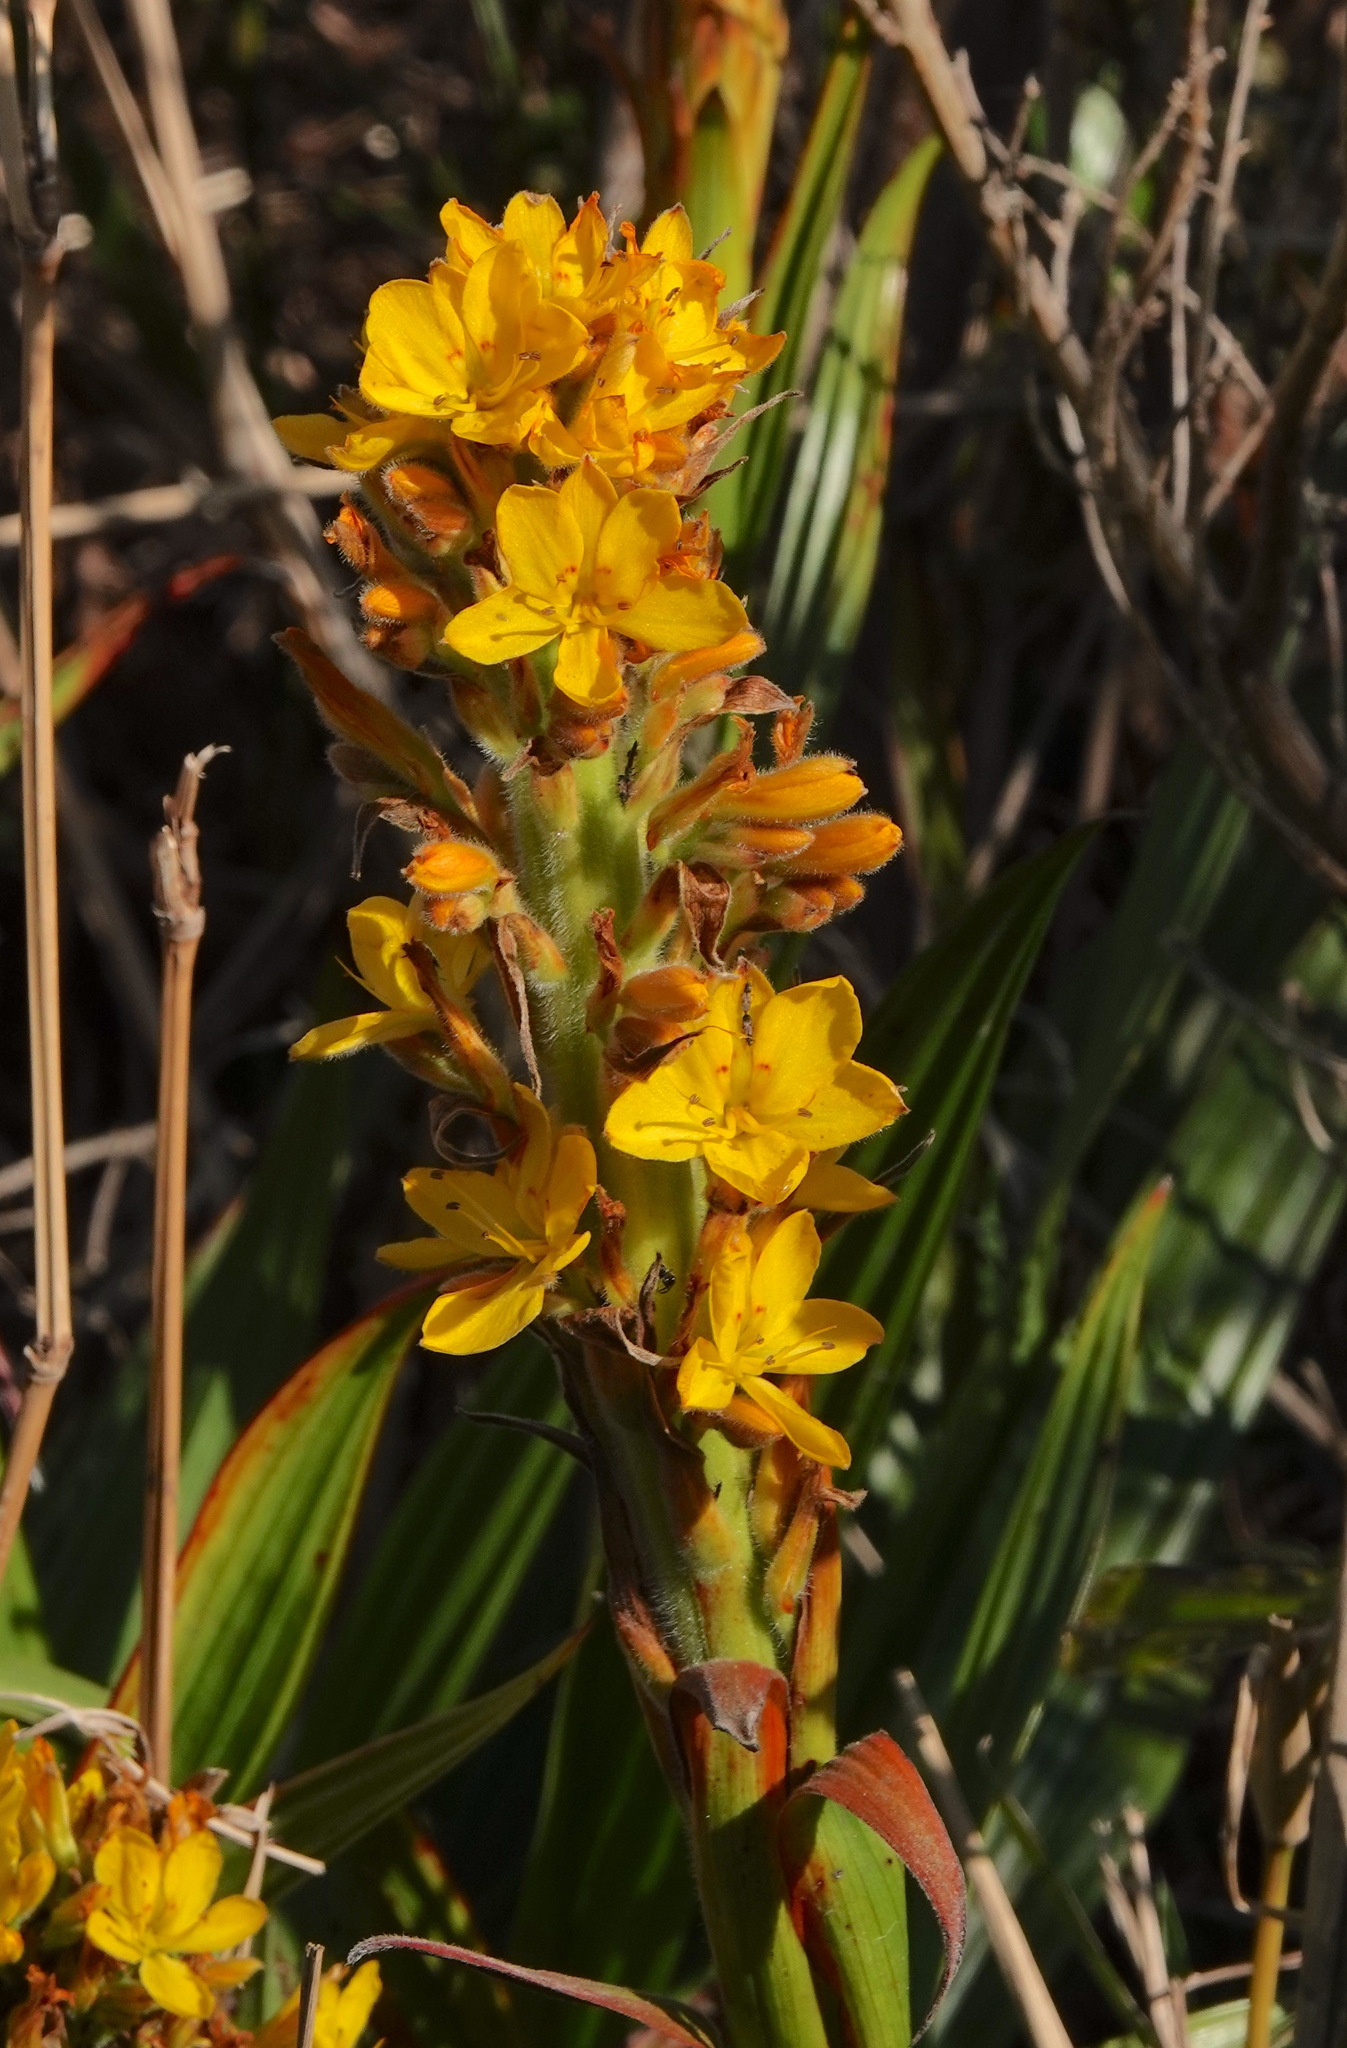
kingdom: Plantae
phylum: Tracheophyta
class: Liliopsida
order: Commelinales
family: Haemodoraceae
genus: Wachendorfia
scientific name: Wachendorfia thyrsiflora
